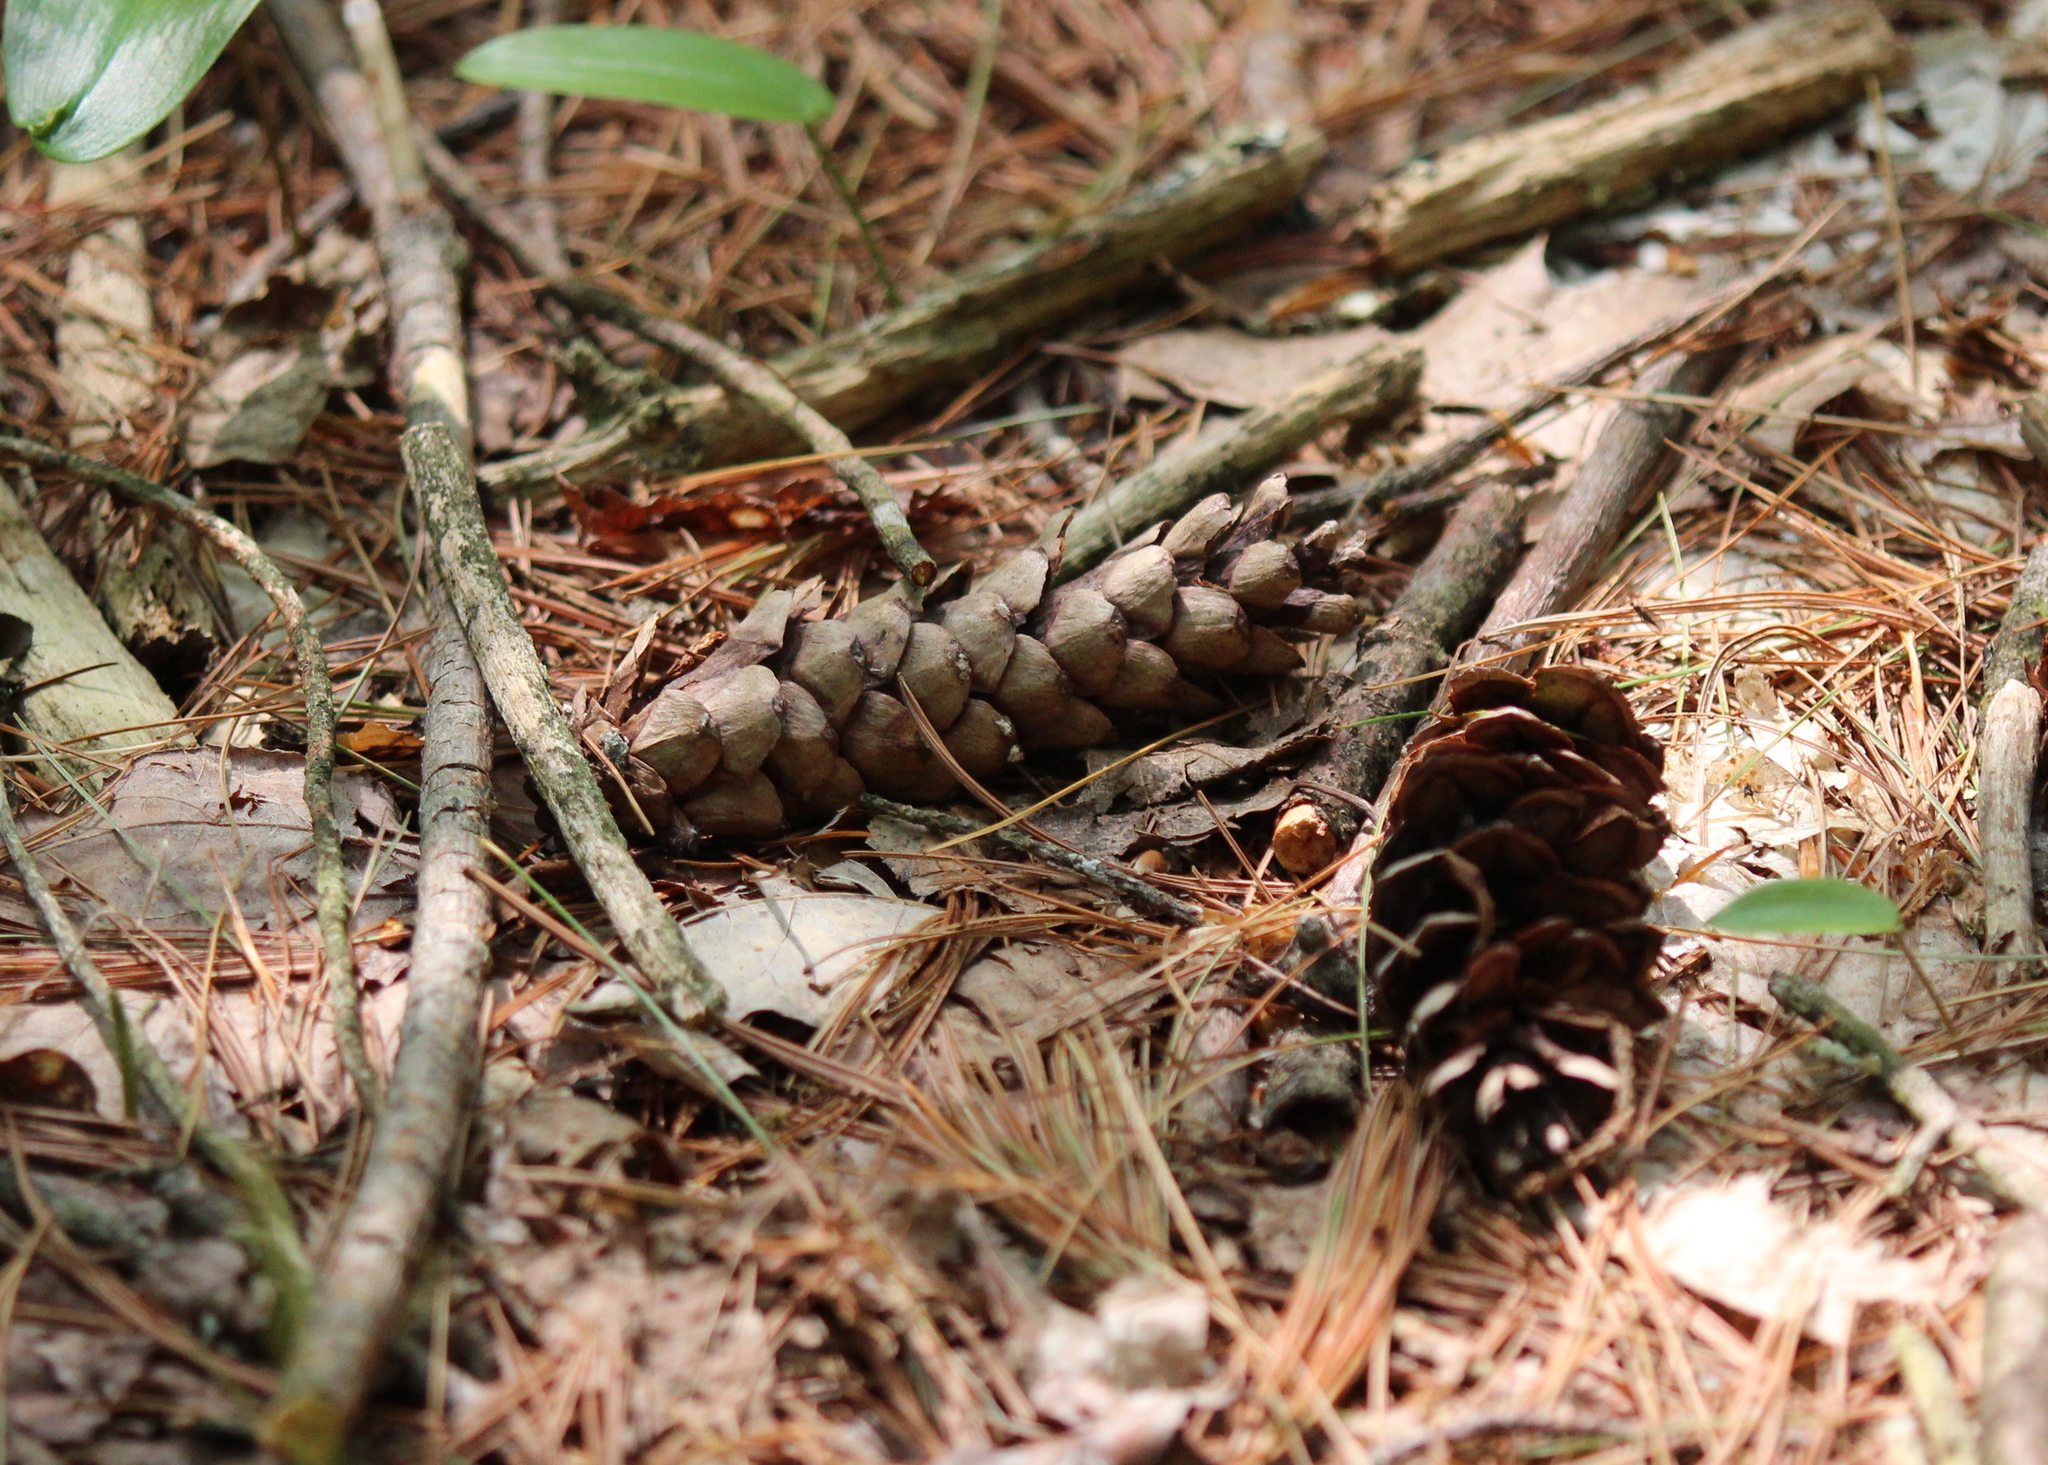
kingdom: Plantae
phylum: Tracheophyta
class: Pinopsida
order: Pinales
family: Pinaceae
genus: Pinus
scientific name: Pinus strobus
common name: Weymouth pine
